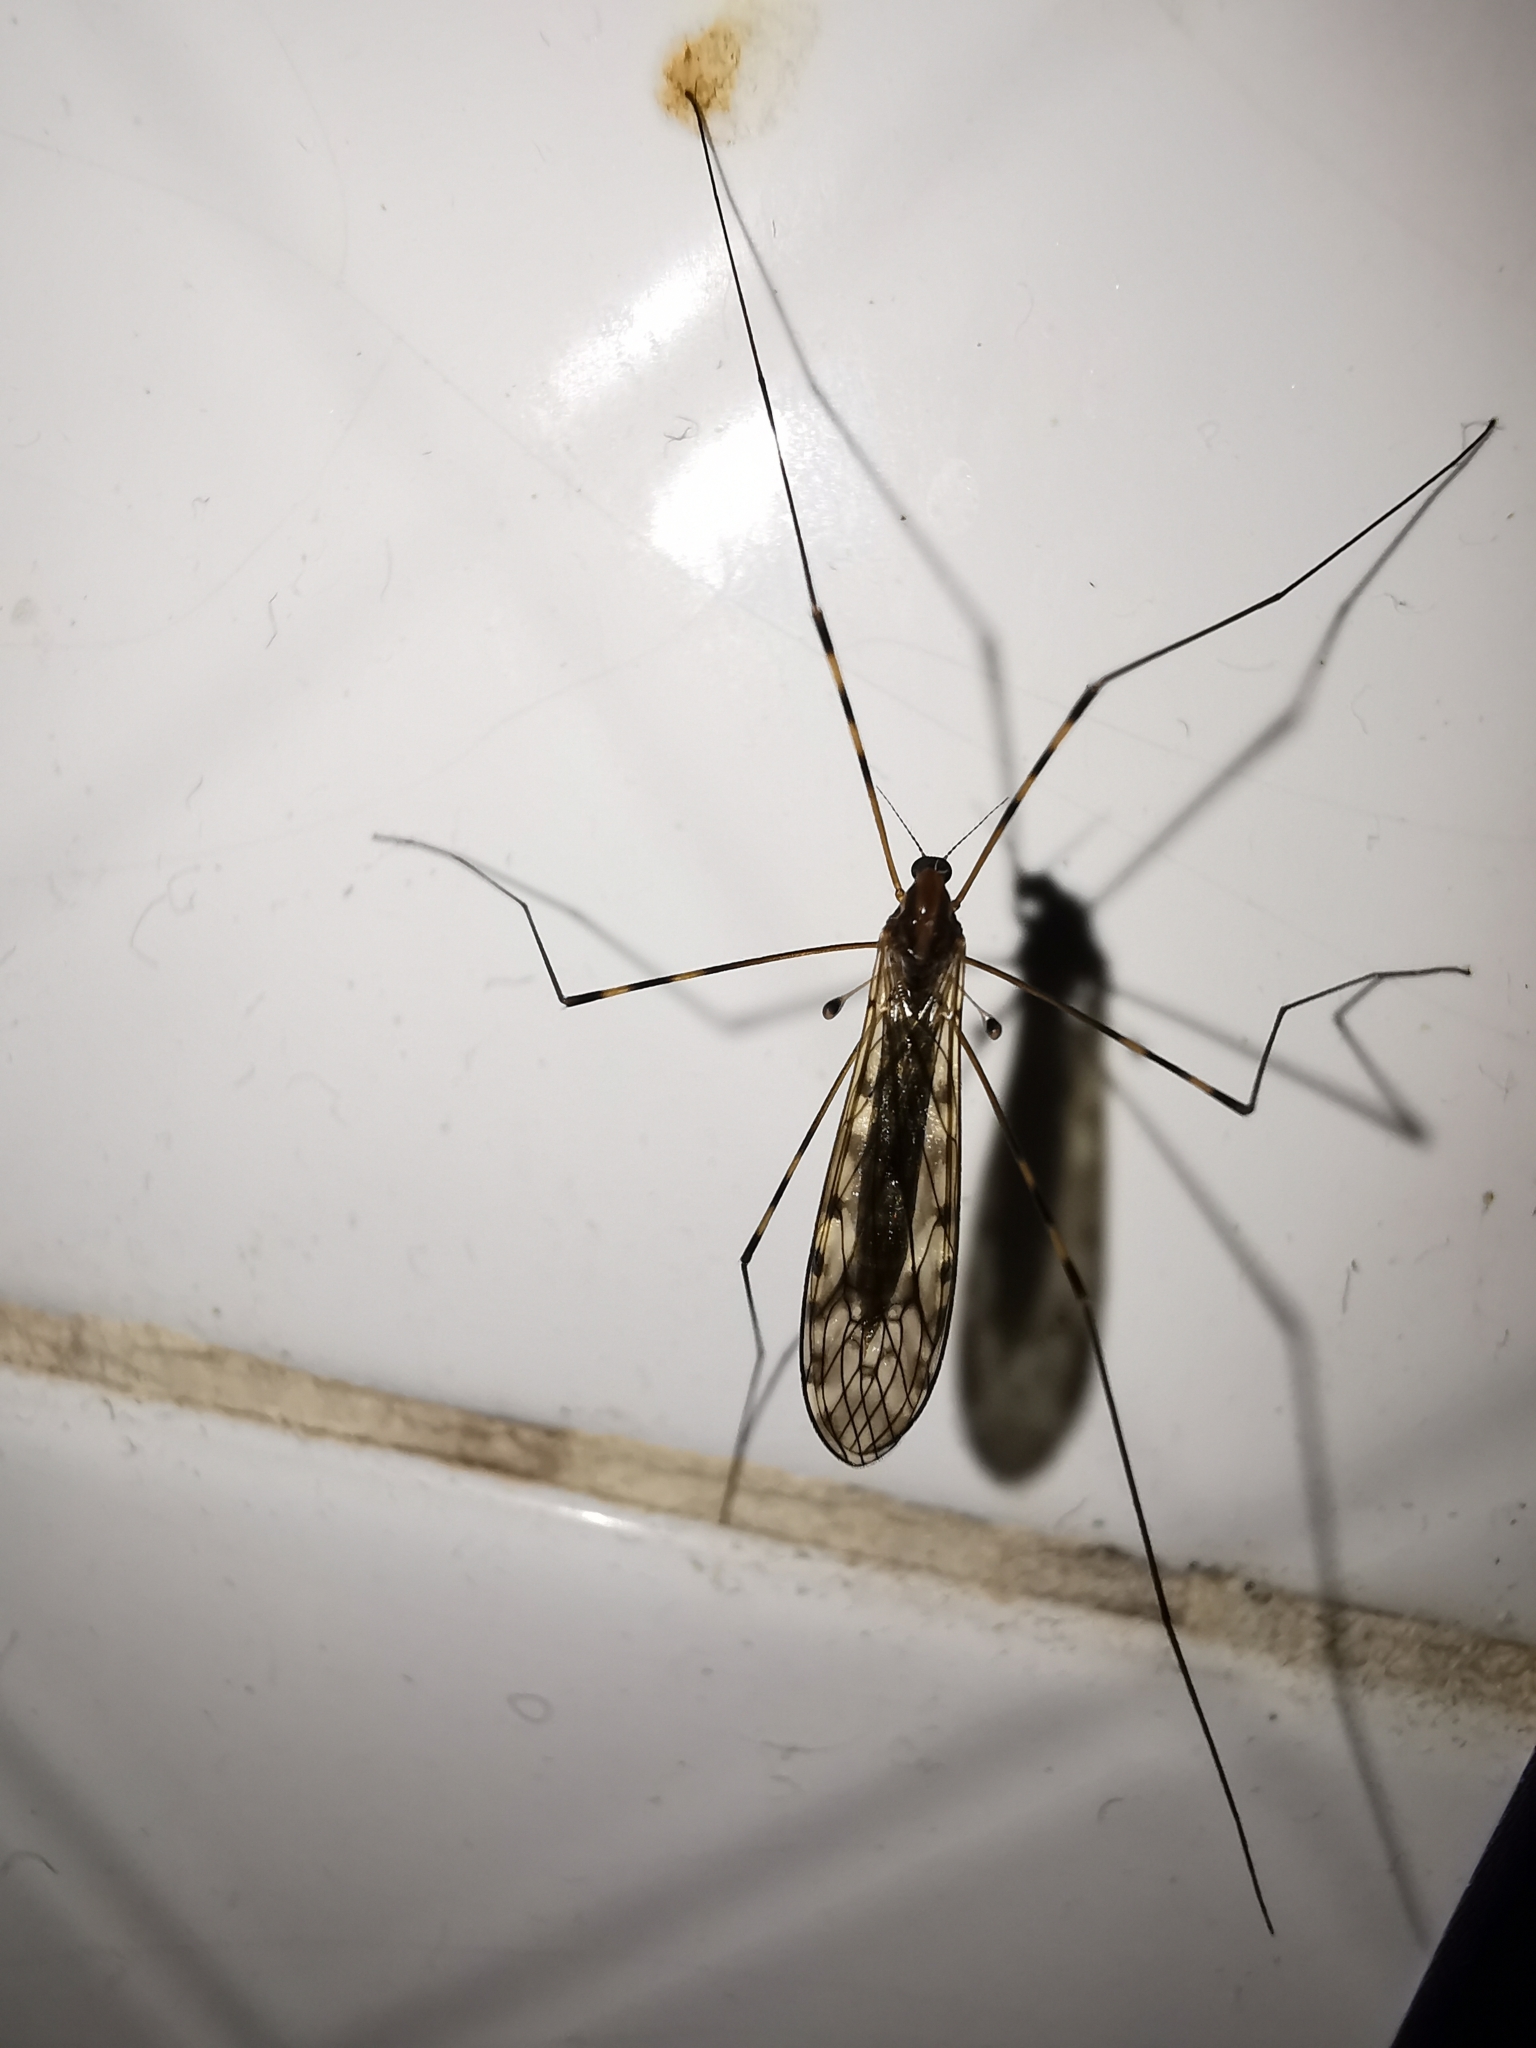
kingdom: Animalia
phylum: Arthropoda
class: Insecta
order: Diptera
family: Limoniidae
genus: Limonia
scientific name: Limonia nubeculosa
